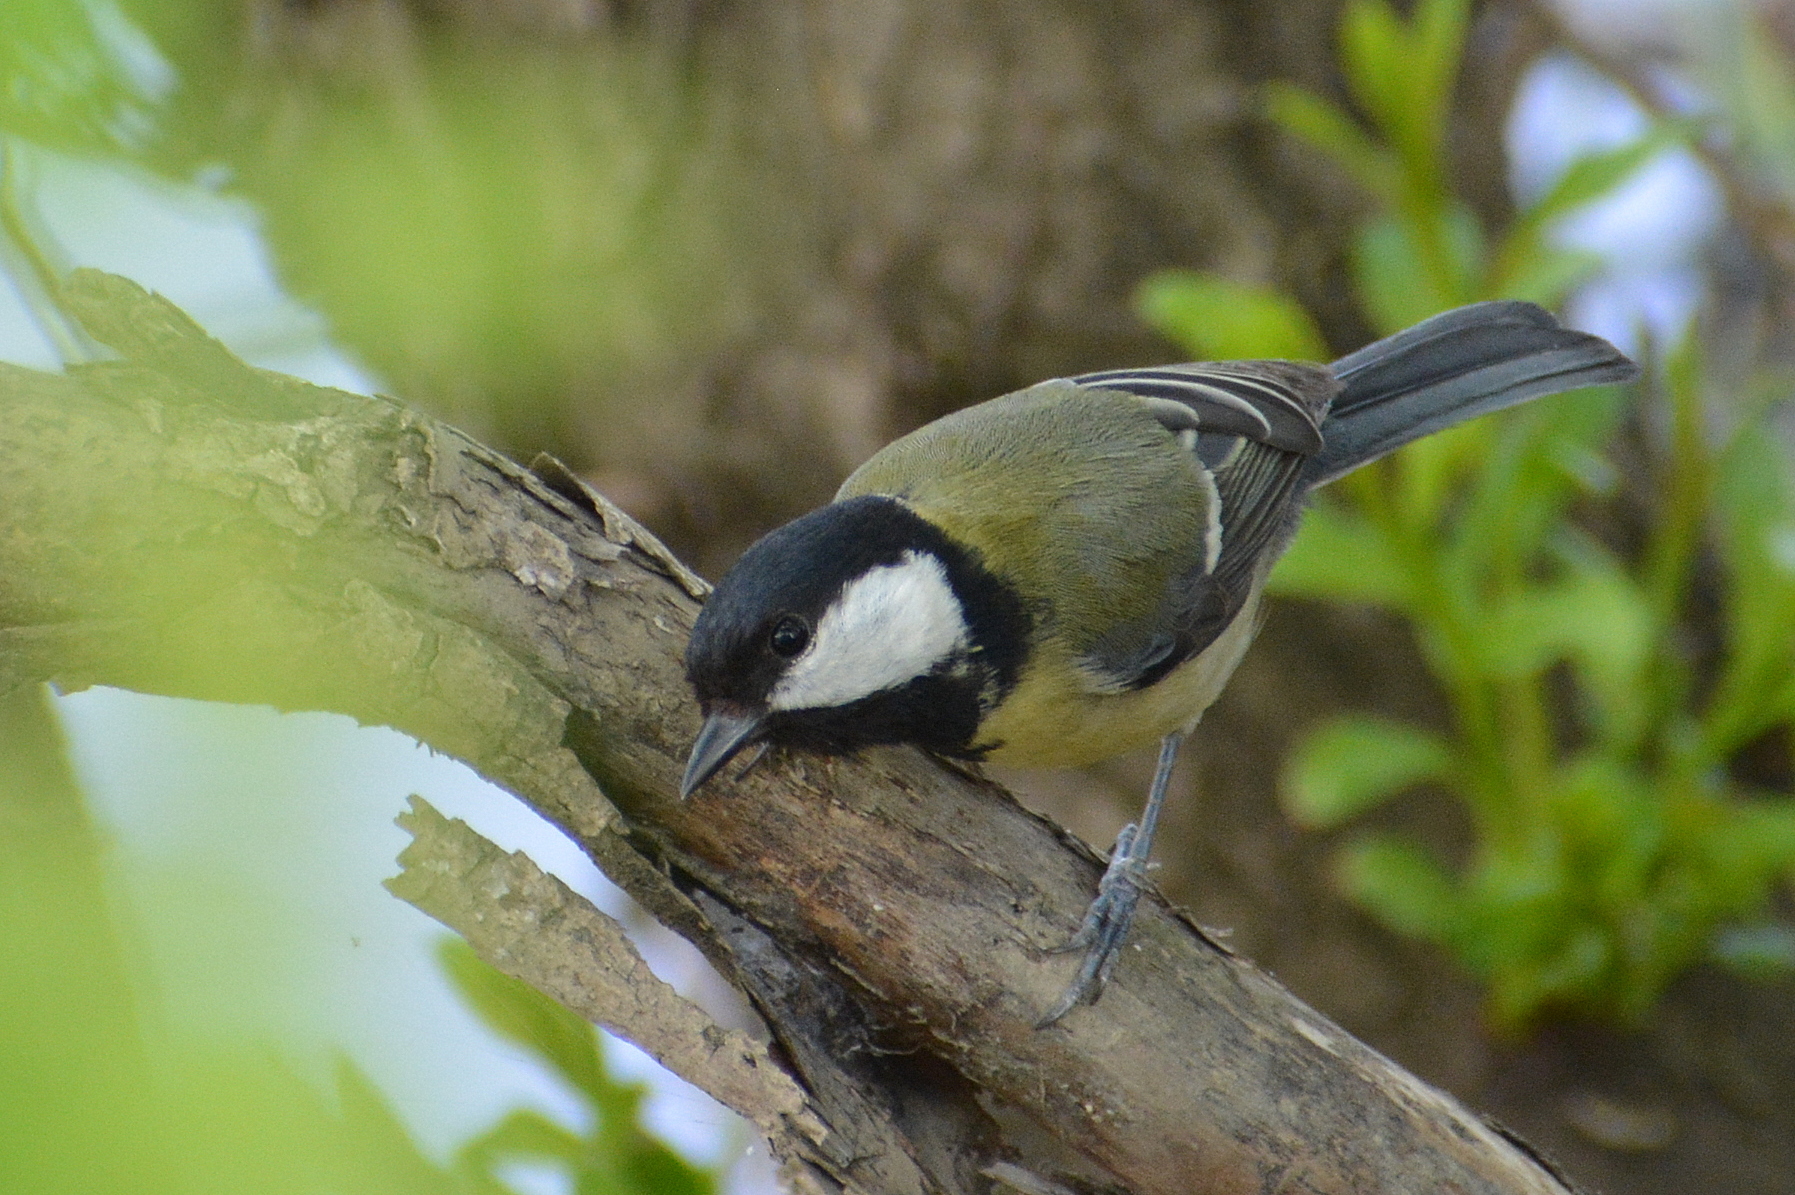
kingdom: Animalia
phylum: Chordata
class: Aves
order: Passeriformes
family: Paridae
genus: Parus
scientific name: Parus major
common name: Great tit
